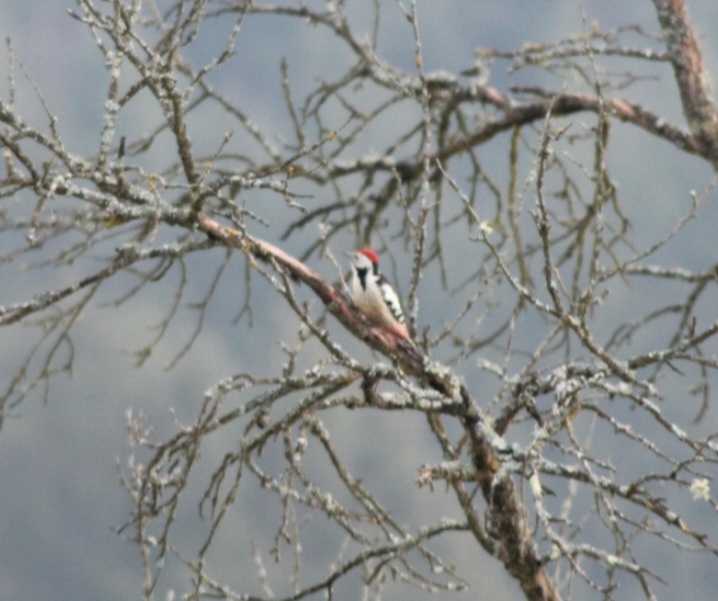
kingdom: Animalia
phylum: Chordata
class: Aves
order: Piciformes
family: Picidae
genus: Dendrocoptes
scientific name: Dendrocoptes medius
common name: Middle spotted woodpecker
